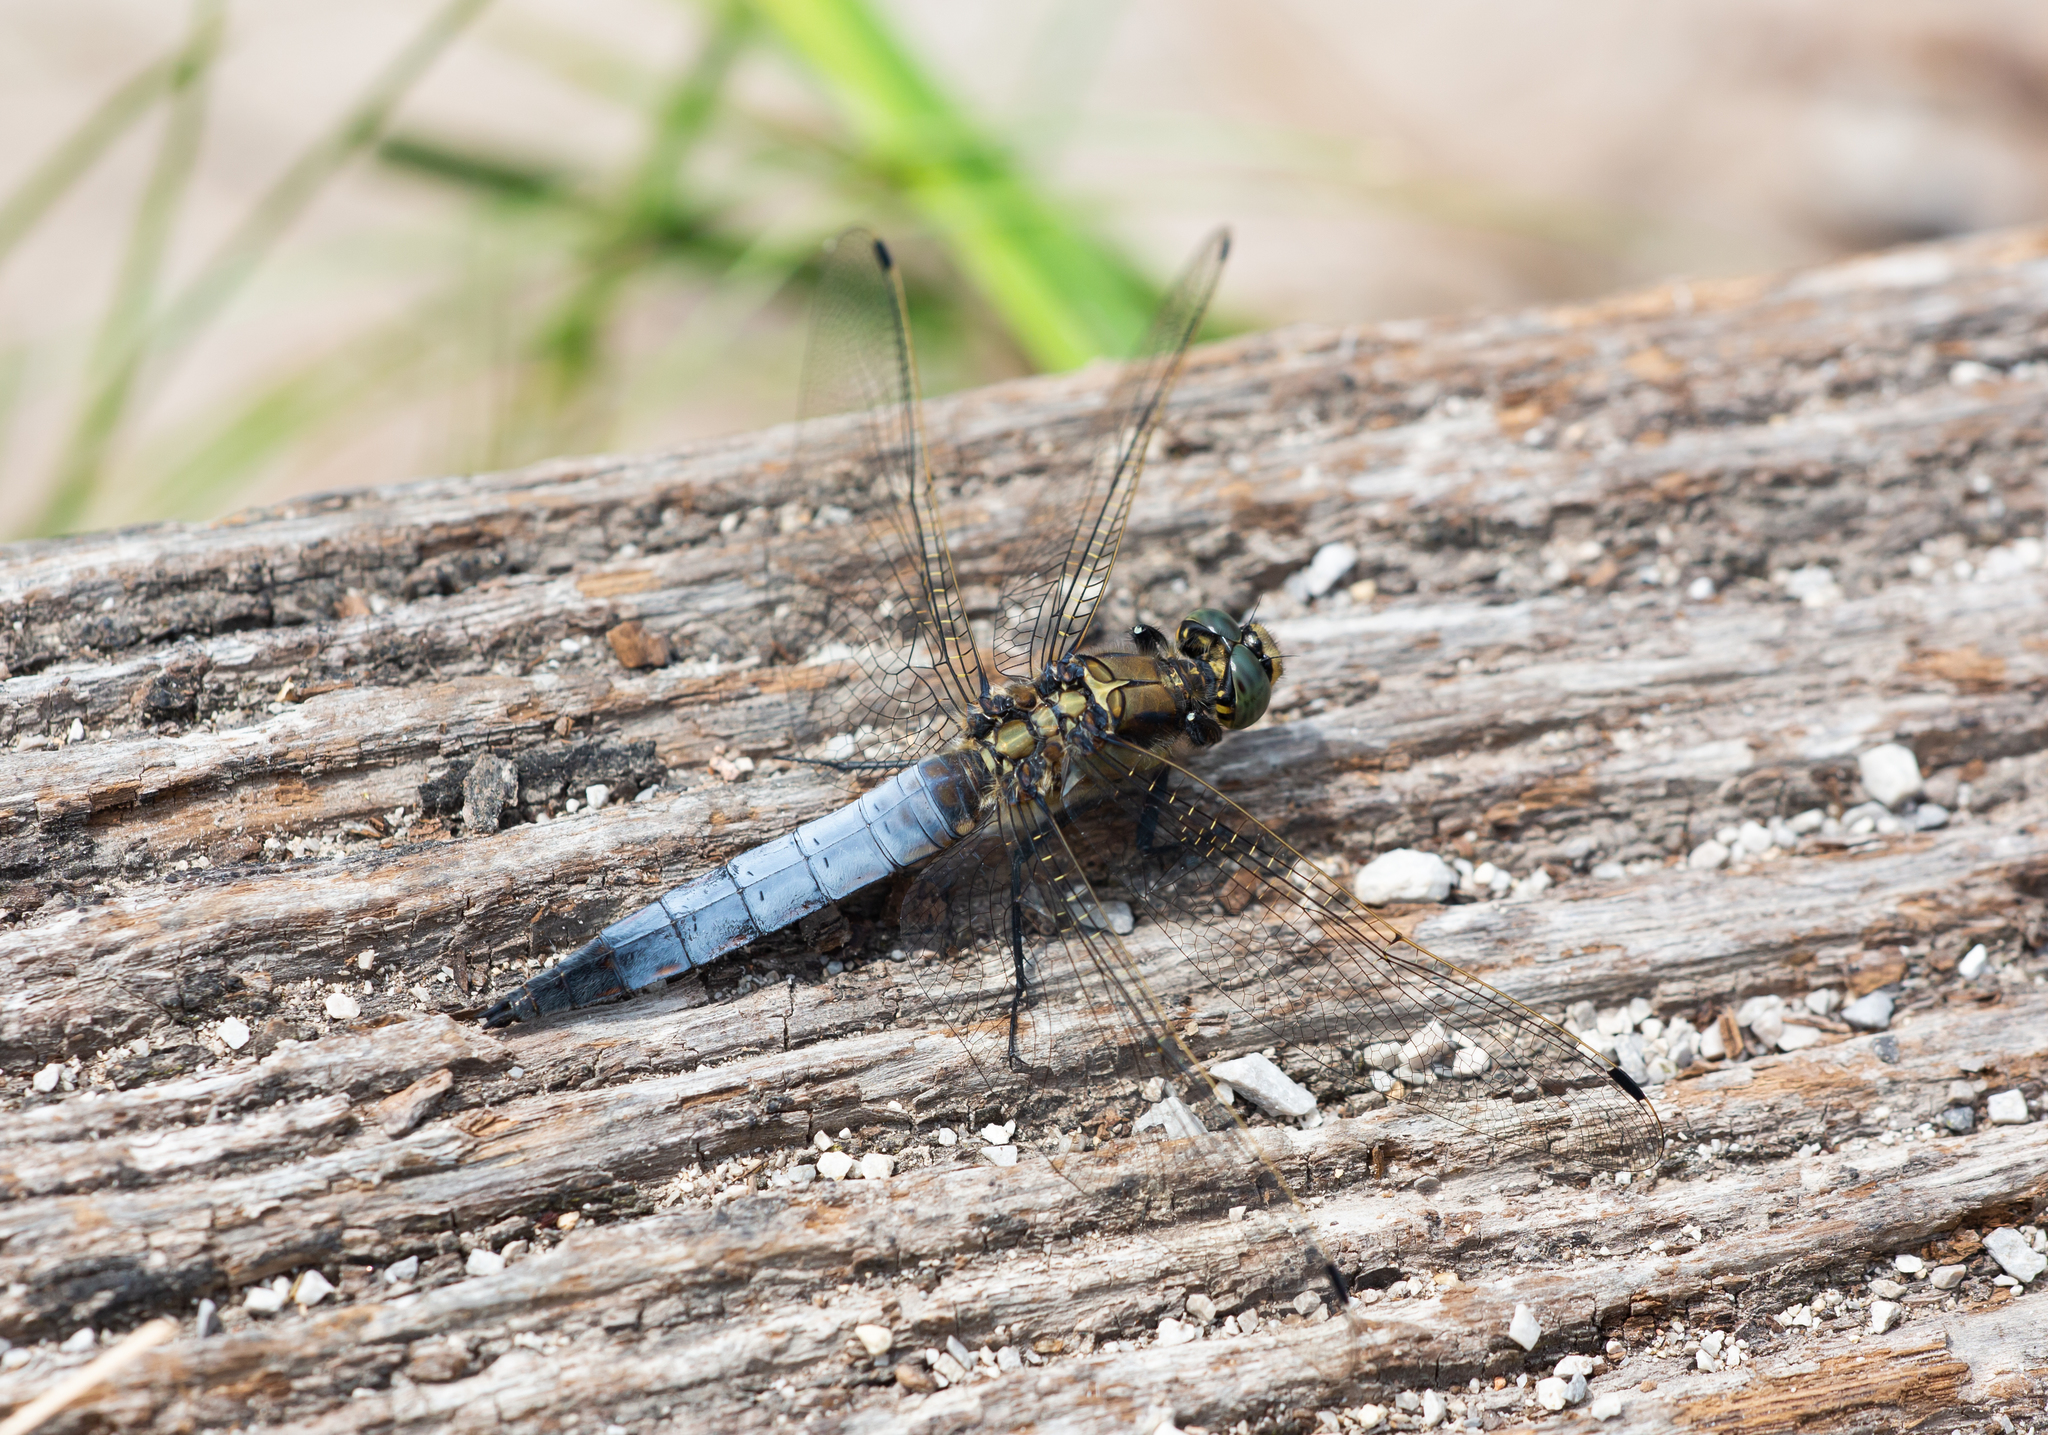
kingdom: Animalia
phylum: Arthropoda
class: Insecta
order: Odonata
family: Libellulidae
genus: Orthetrum
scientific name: Orthetrum cancellatum
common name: Black-tailed skimmer
